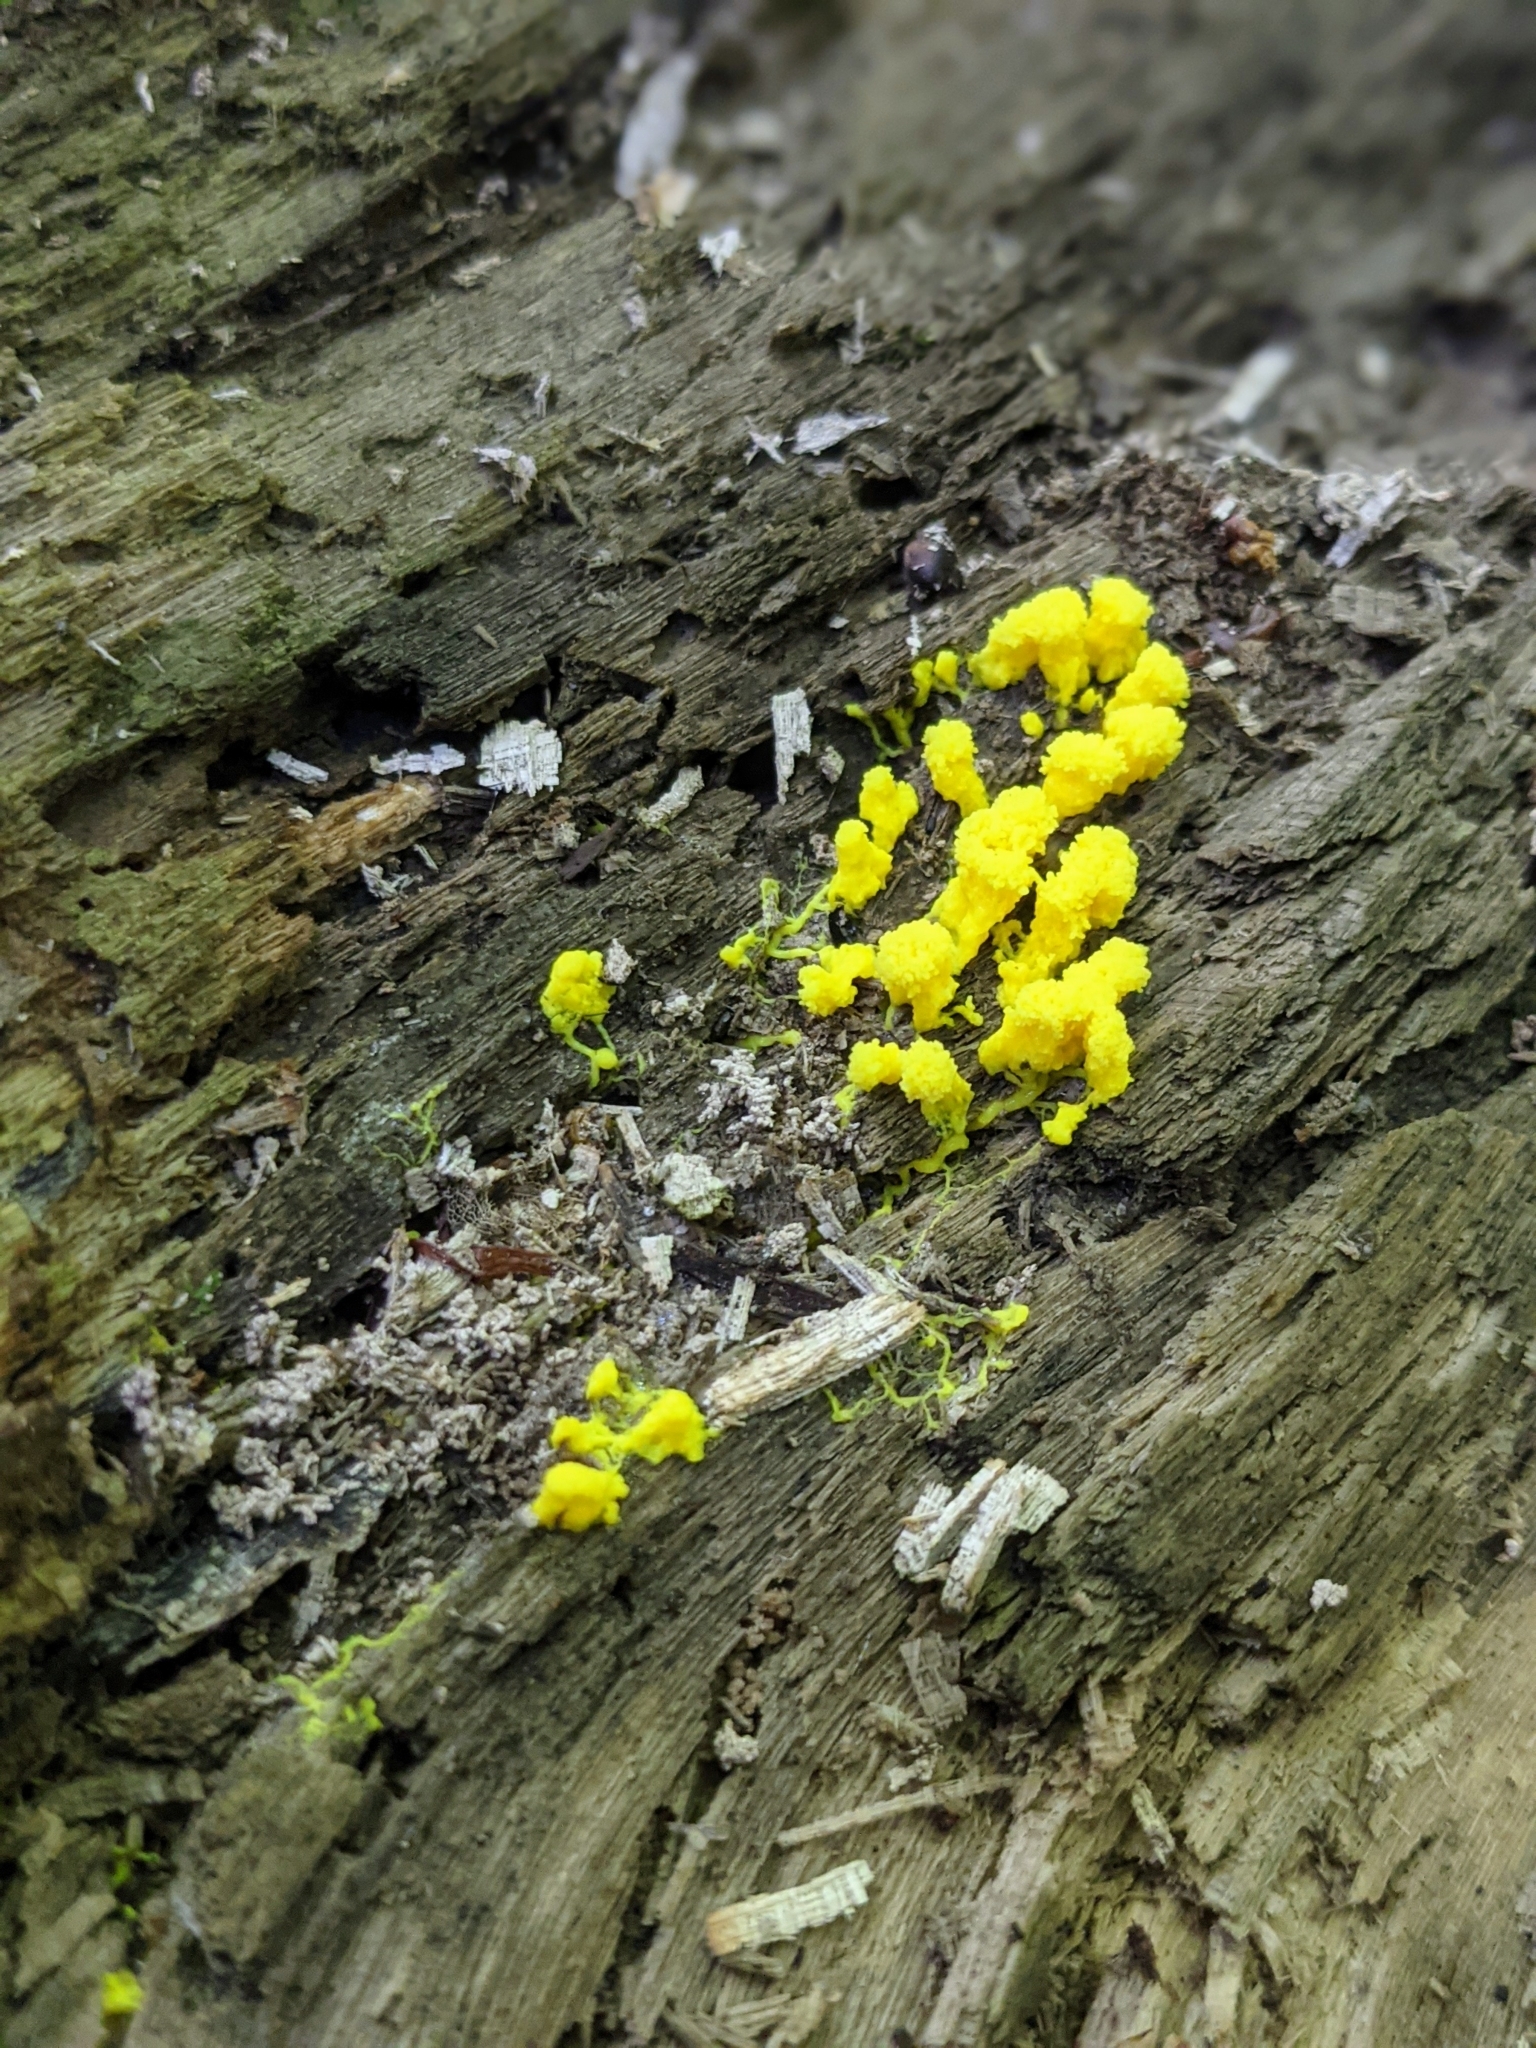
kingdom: Protozoa
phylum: Mycetozoa
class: Myxomycetes
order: Physarales
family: Physaraceae
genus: Fuligo
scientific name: Fuligo septica
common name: Dog vomit slime mold
